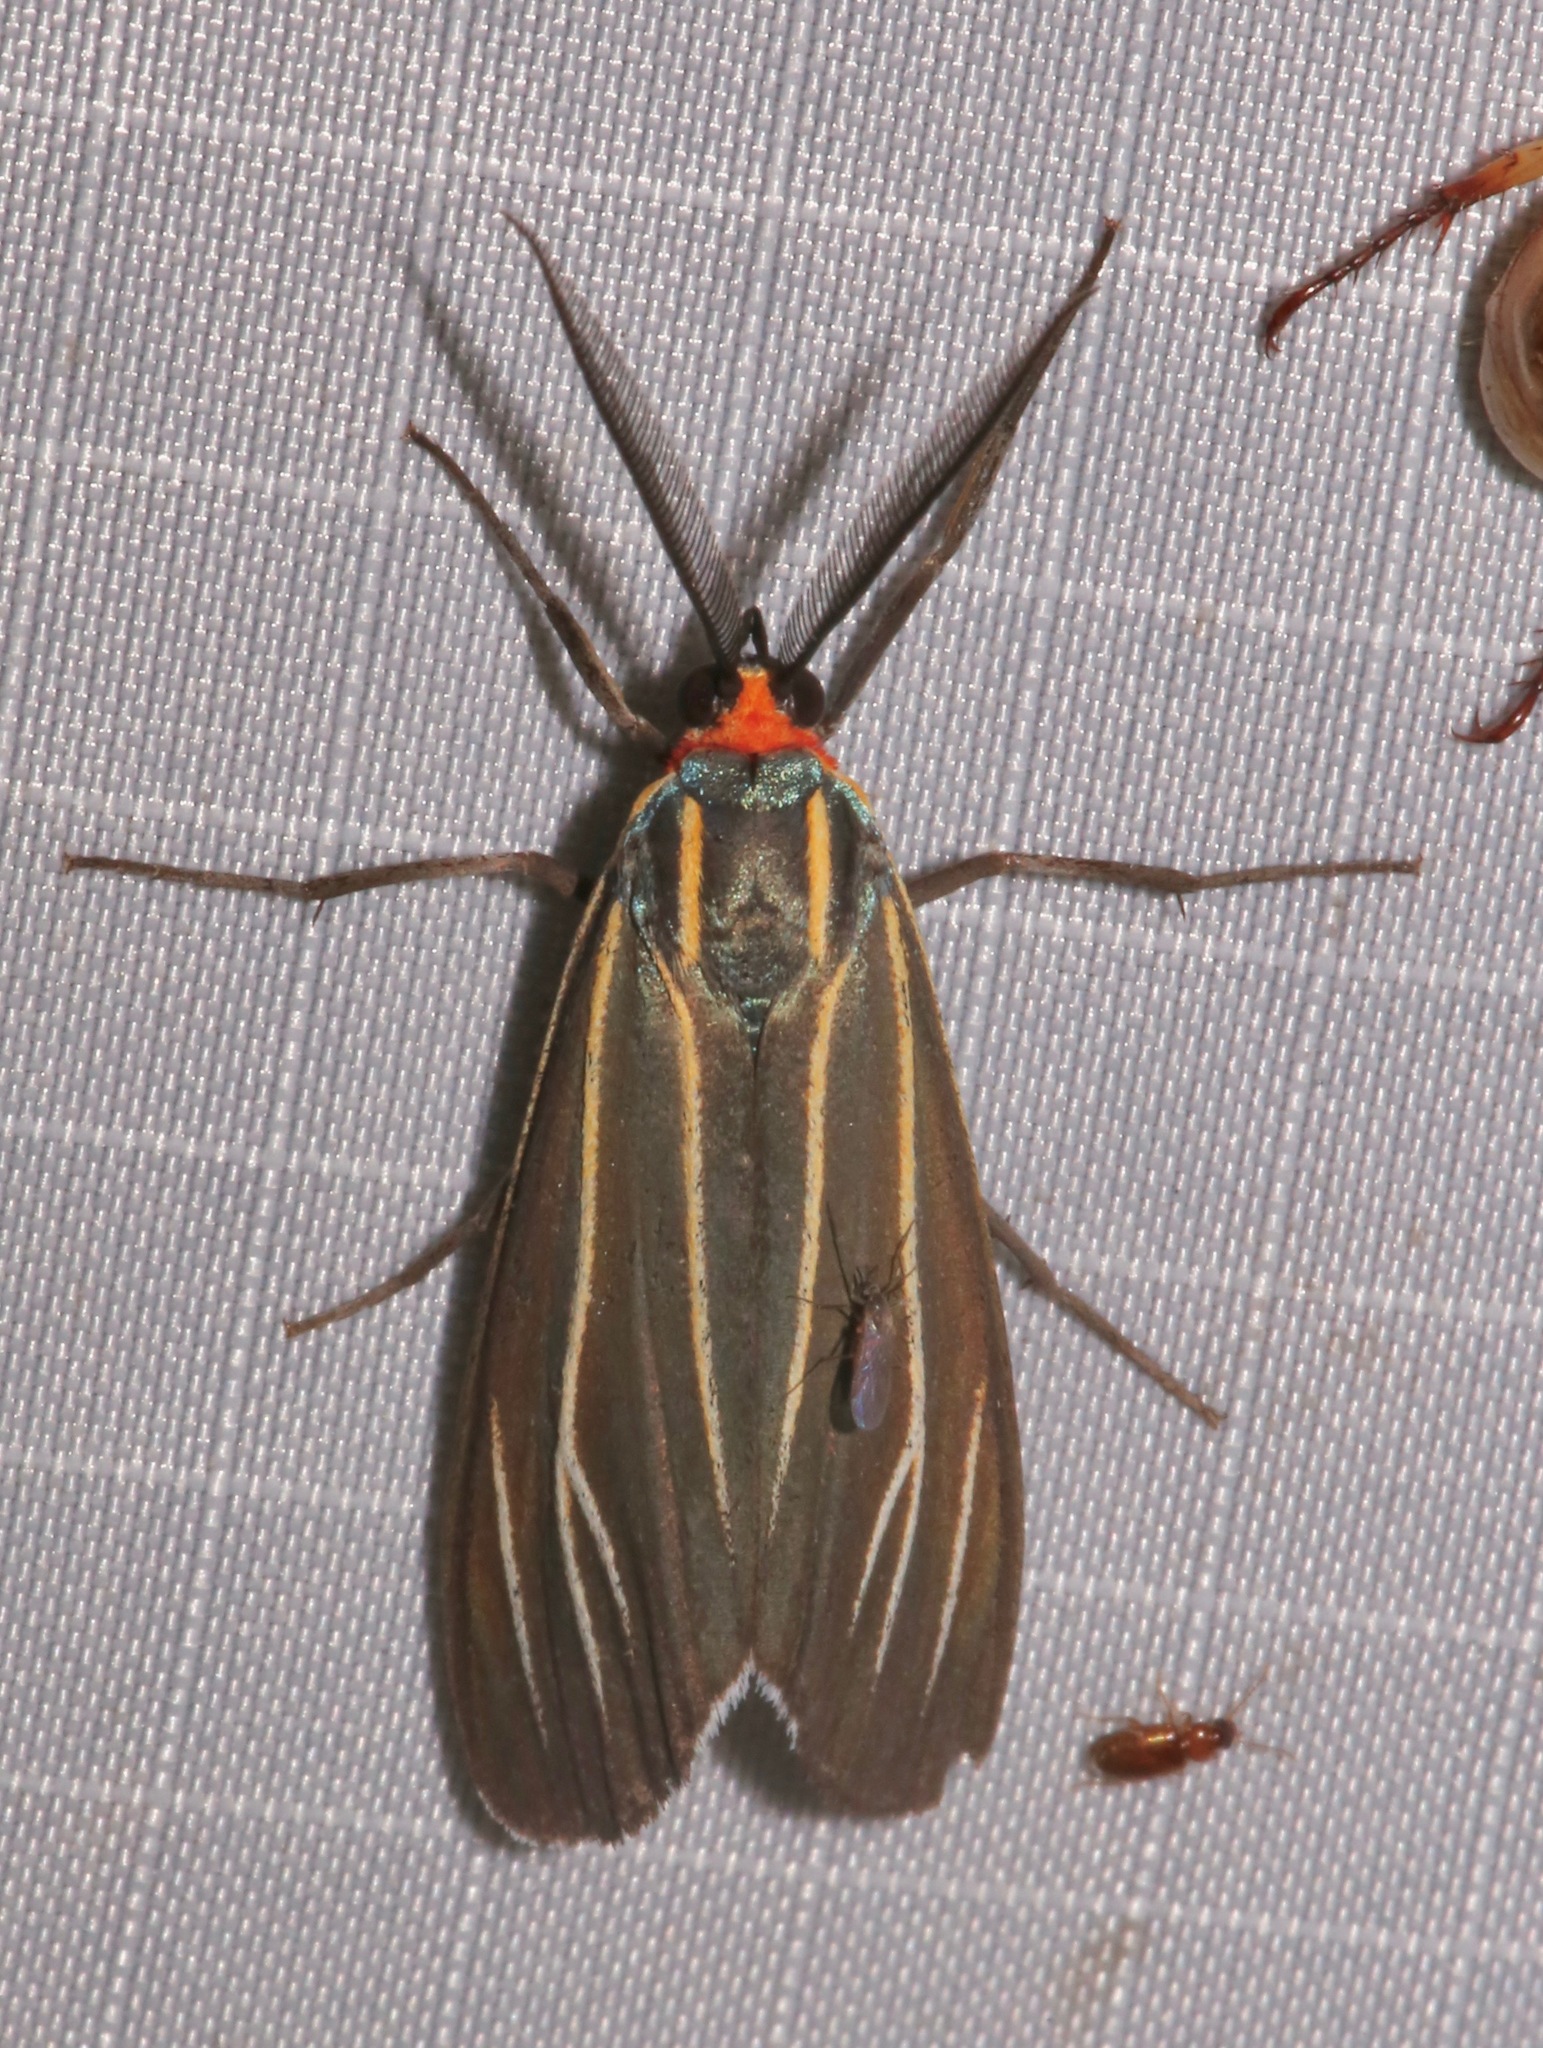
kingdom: Animalia
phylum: Arthropoda
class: Insecta
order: Lepidoptera
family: Erebidae
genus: Ctenucha
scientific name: Ctenucha venosa
